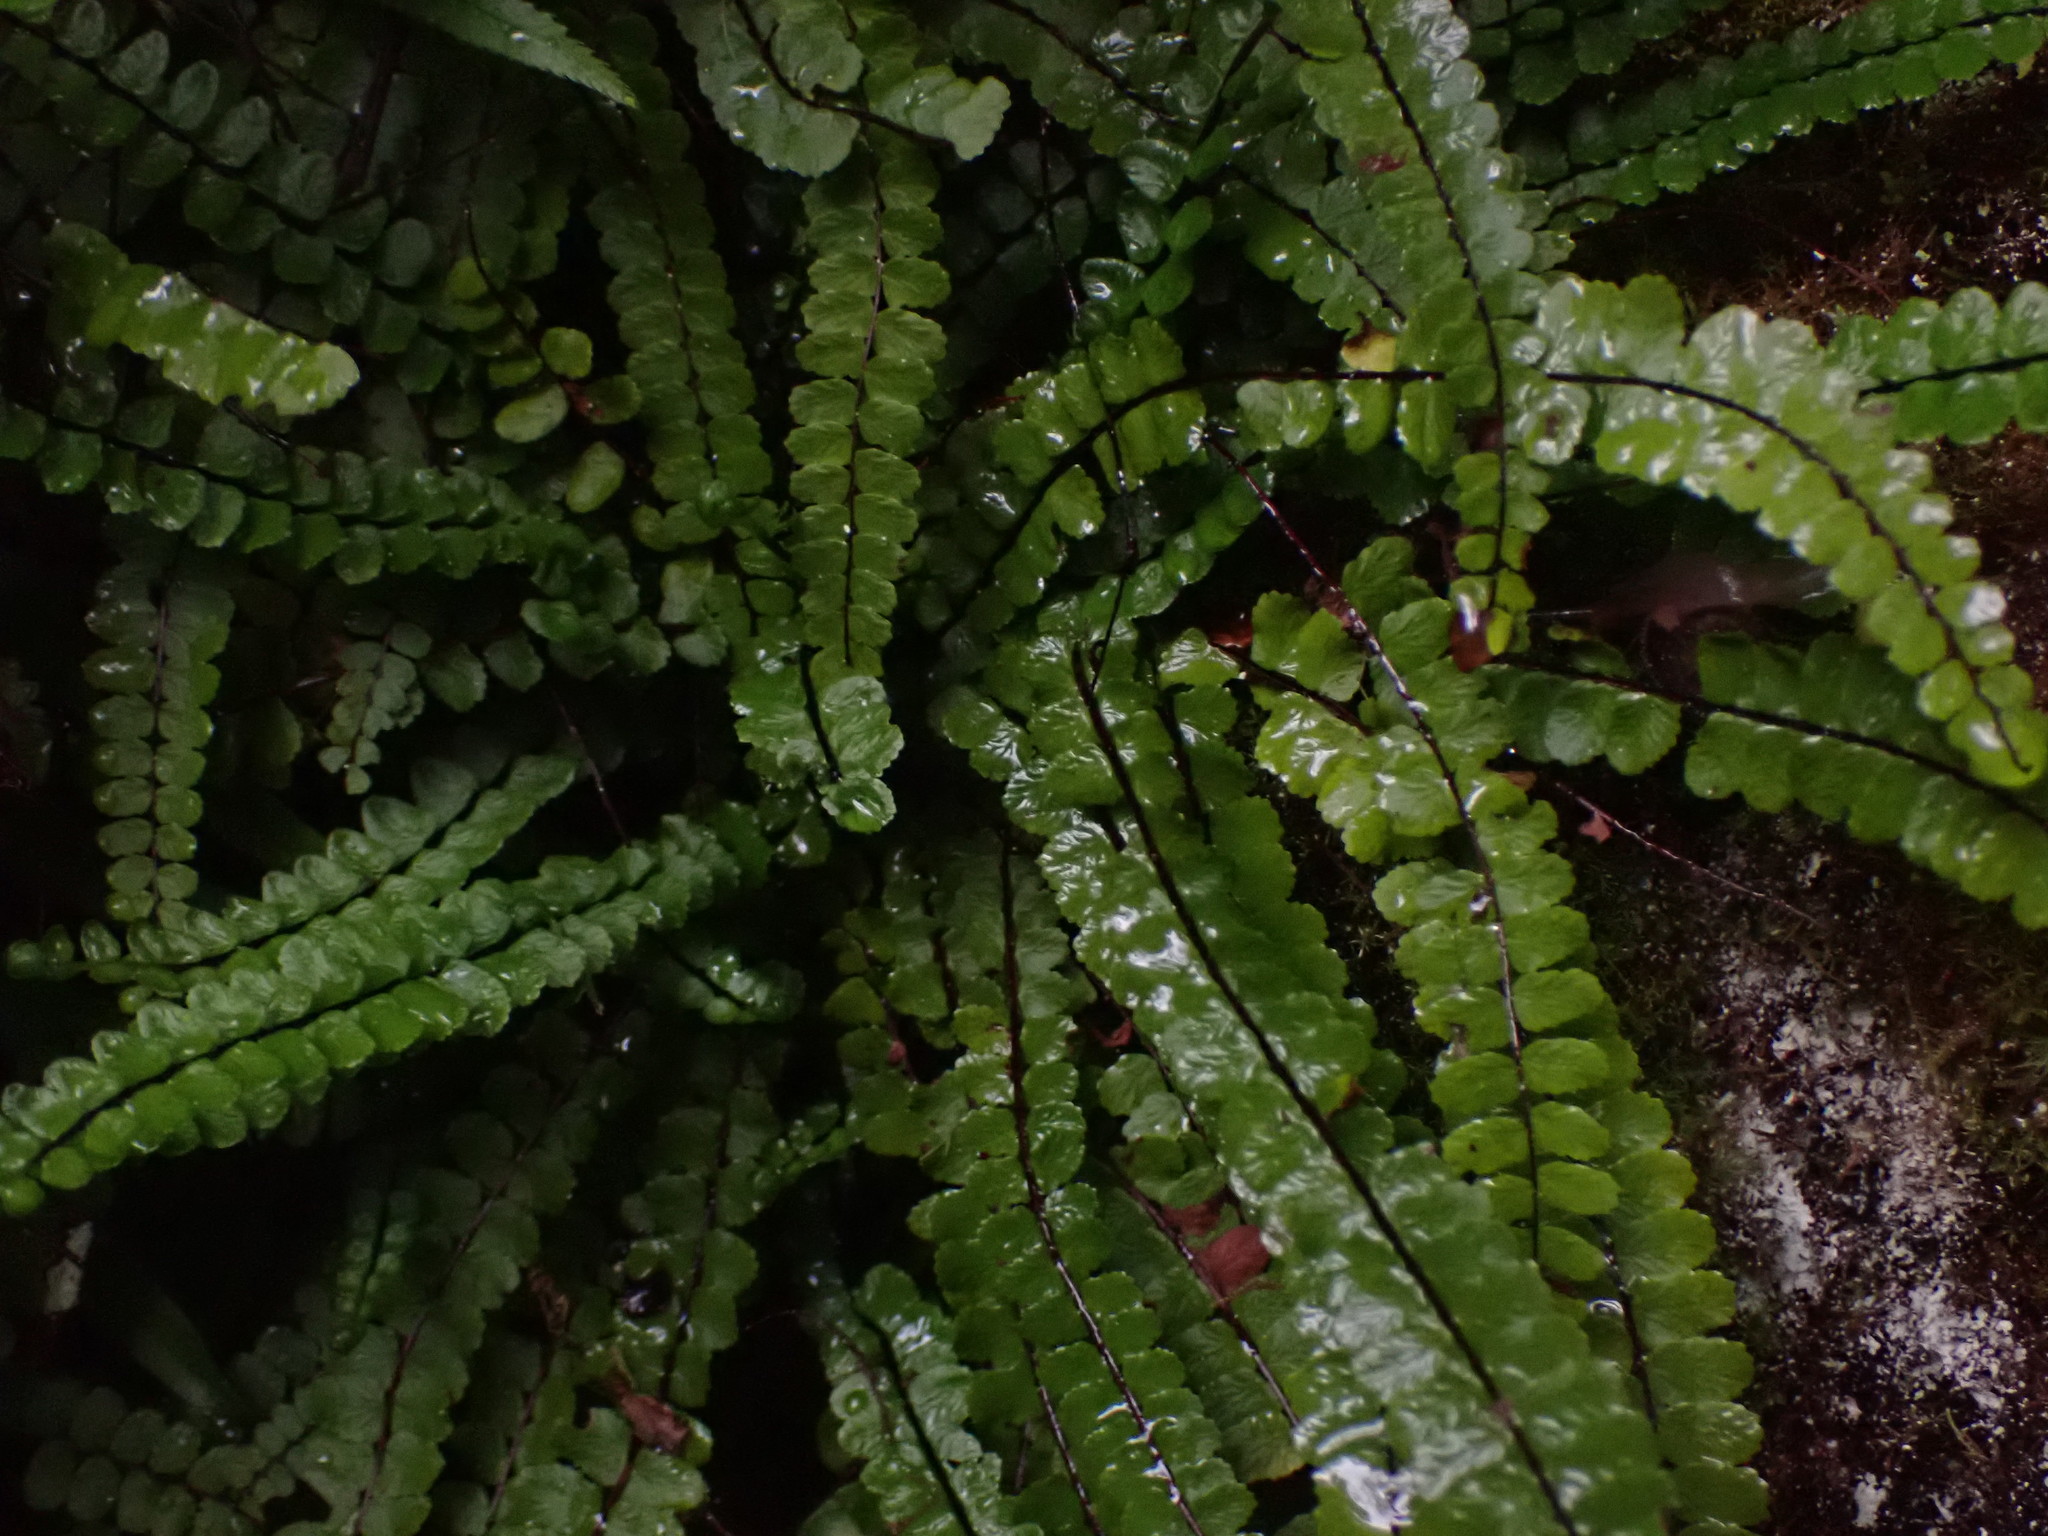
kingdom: Plantae
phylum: Tracheophyta
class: Polypodiopsida
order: Polypodiales
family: Aspleniaceae
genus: Asplenium
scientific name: Asplenium trichomanes
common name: Maidenhair spleenwort
